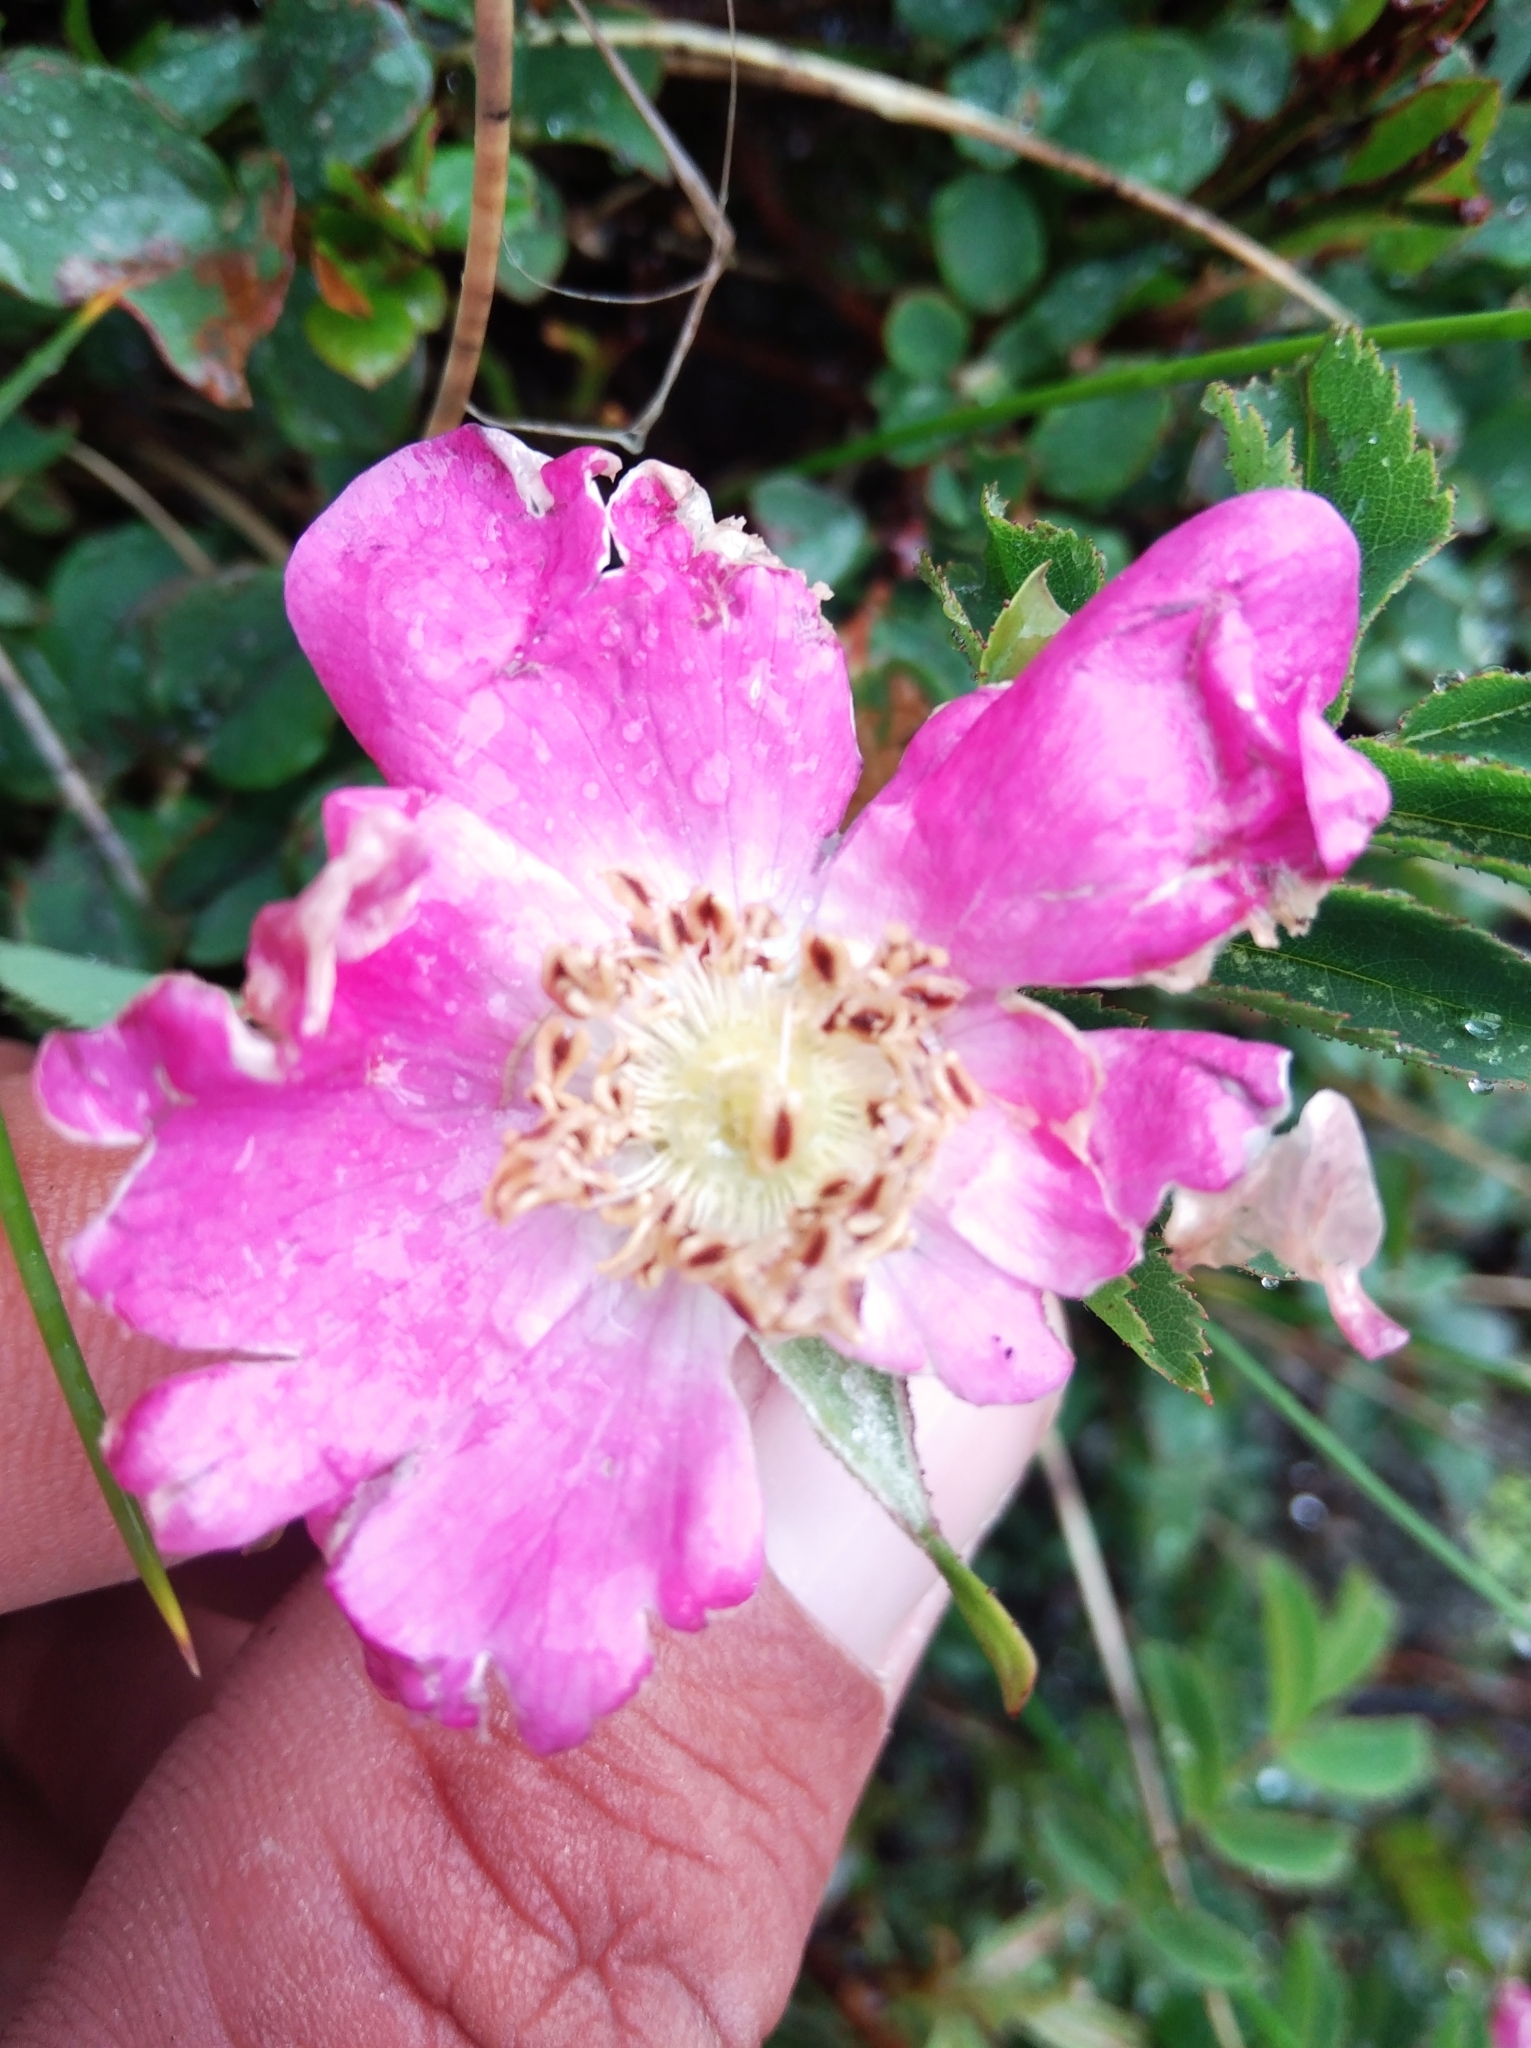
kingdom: Plantae
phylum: Tracheophyta
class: Magnoliopsida
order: Rosales
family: Rosaceae
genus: Rosa
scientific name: Rosa pendulina
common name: Alpine rose
